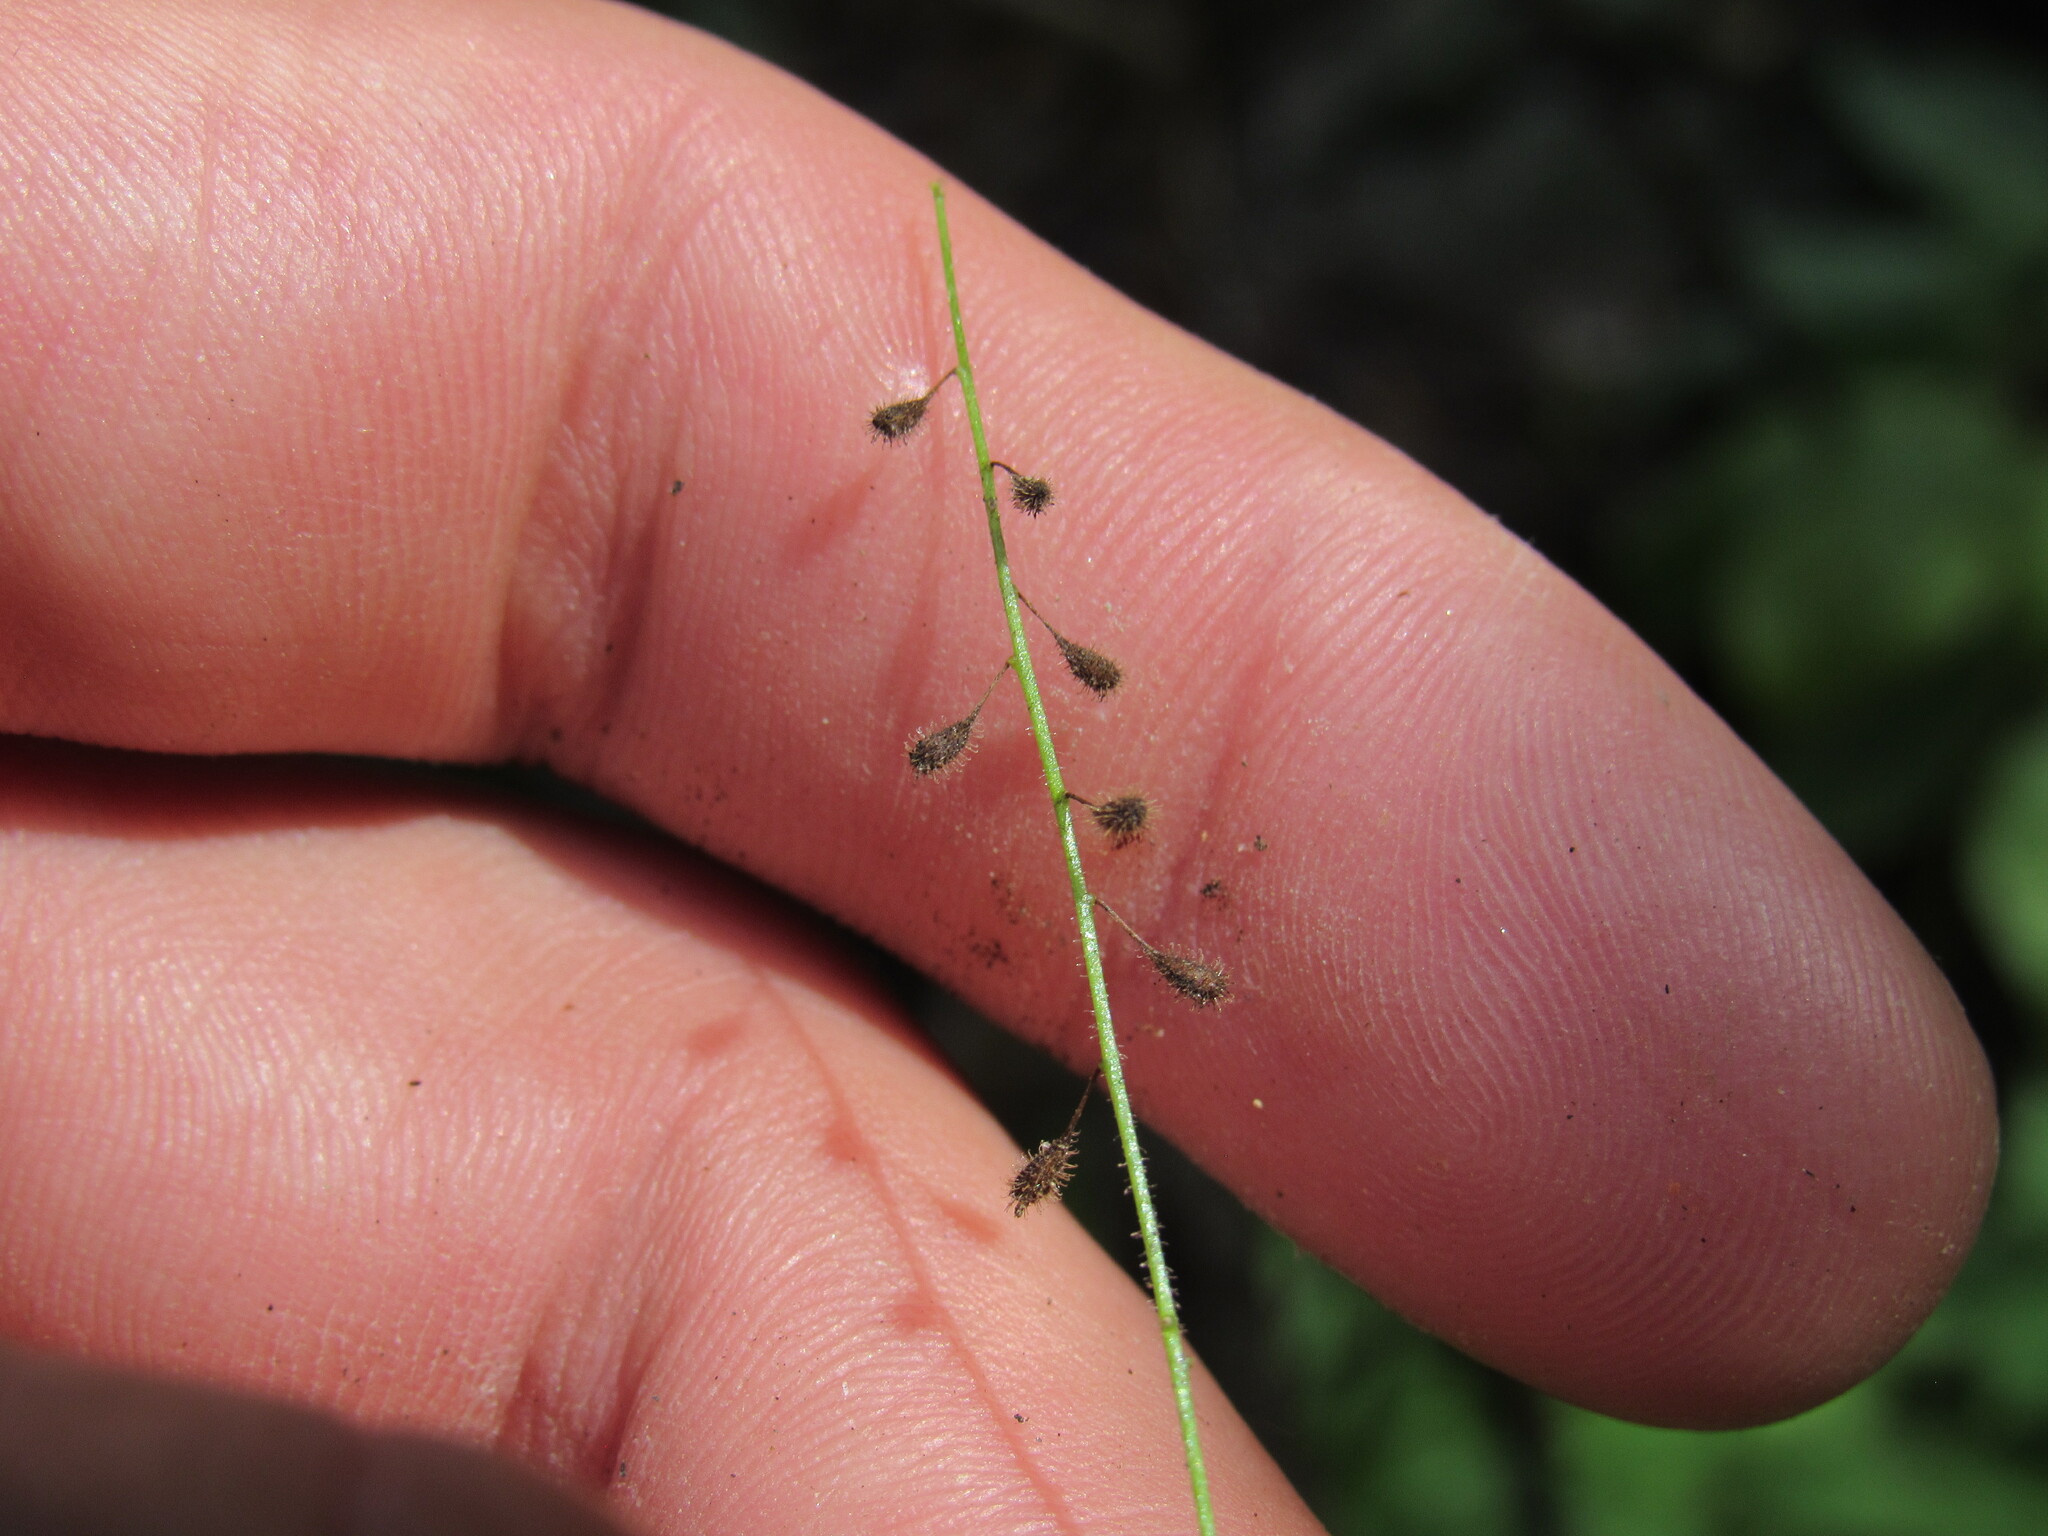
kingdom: Plantae
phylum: Tracheophyta
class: Magnoliopsida
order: Myrtales
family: Onagraceae
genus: Circaea
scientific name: Circaea alpina
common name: Alpine enchanter's-nightshade
